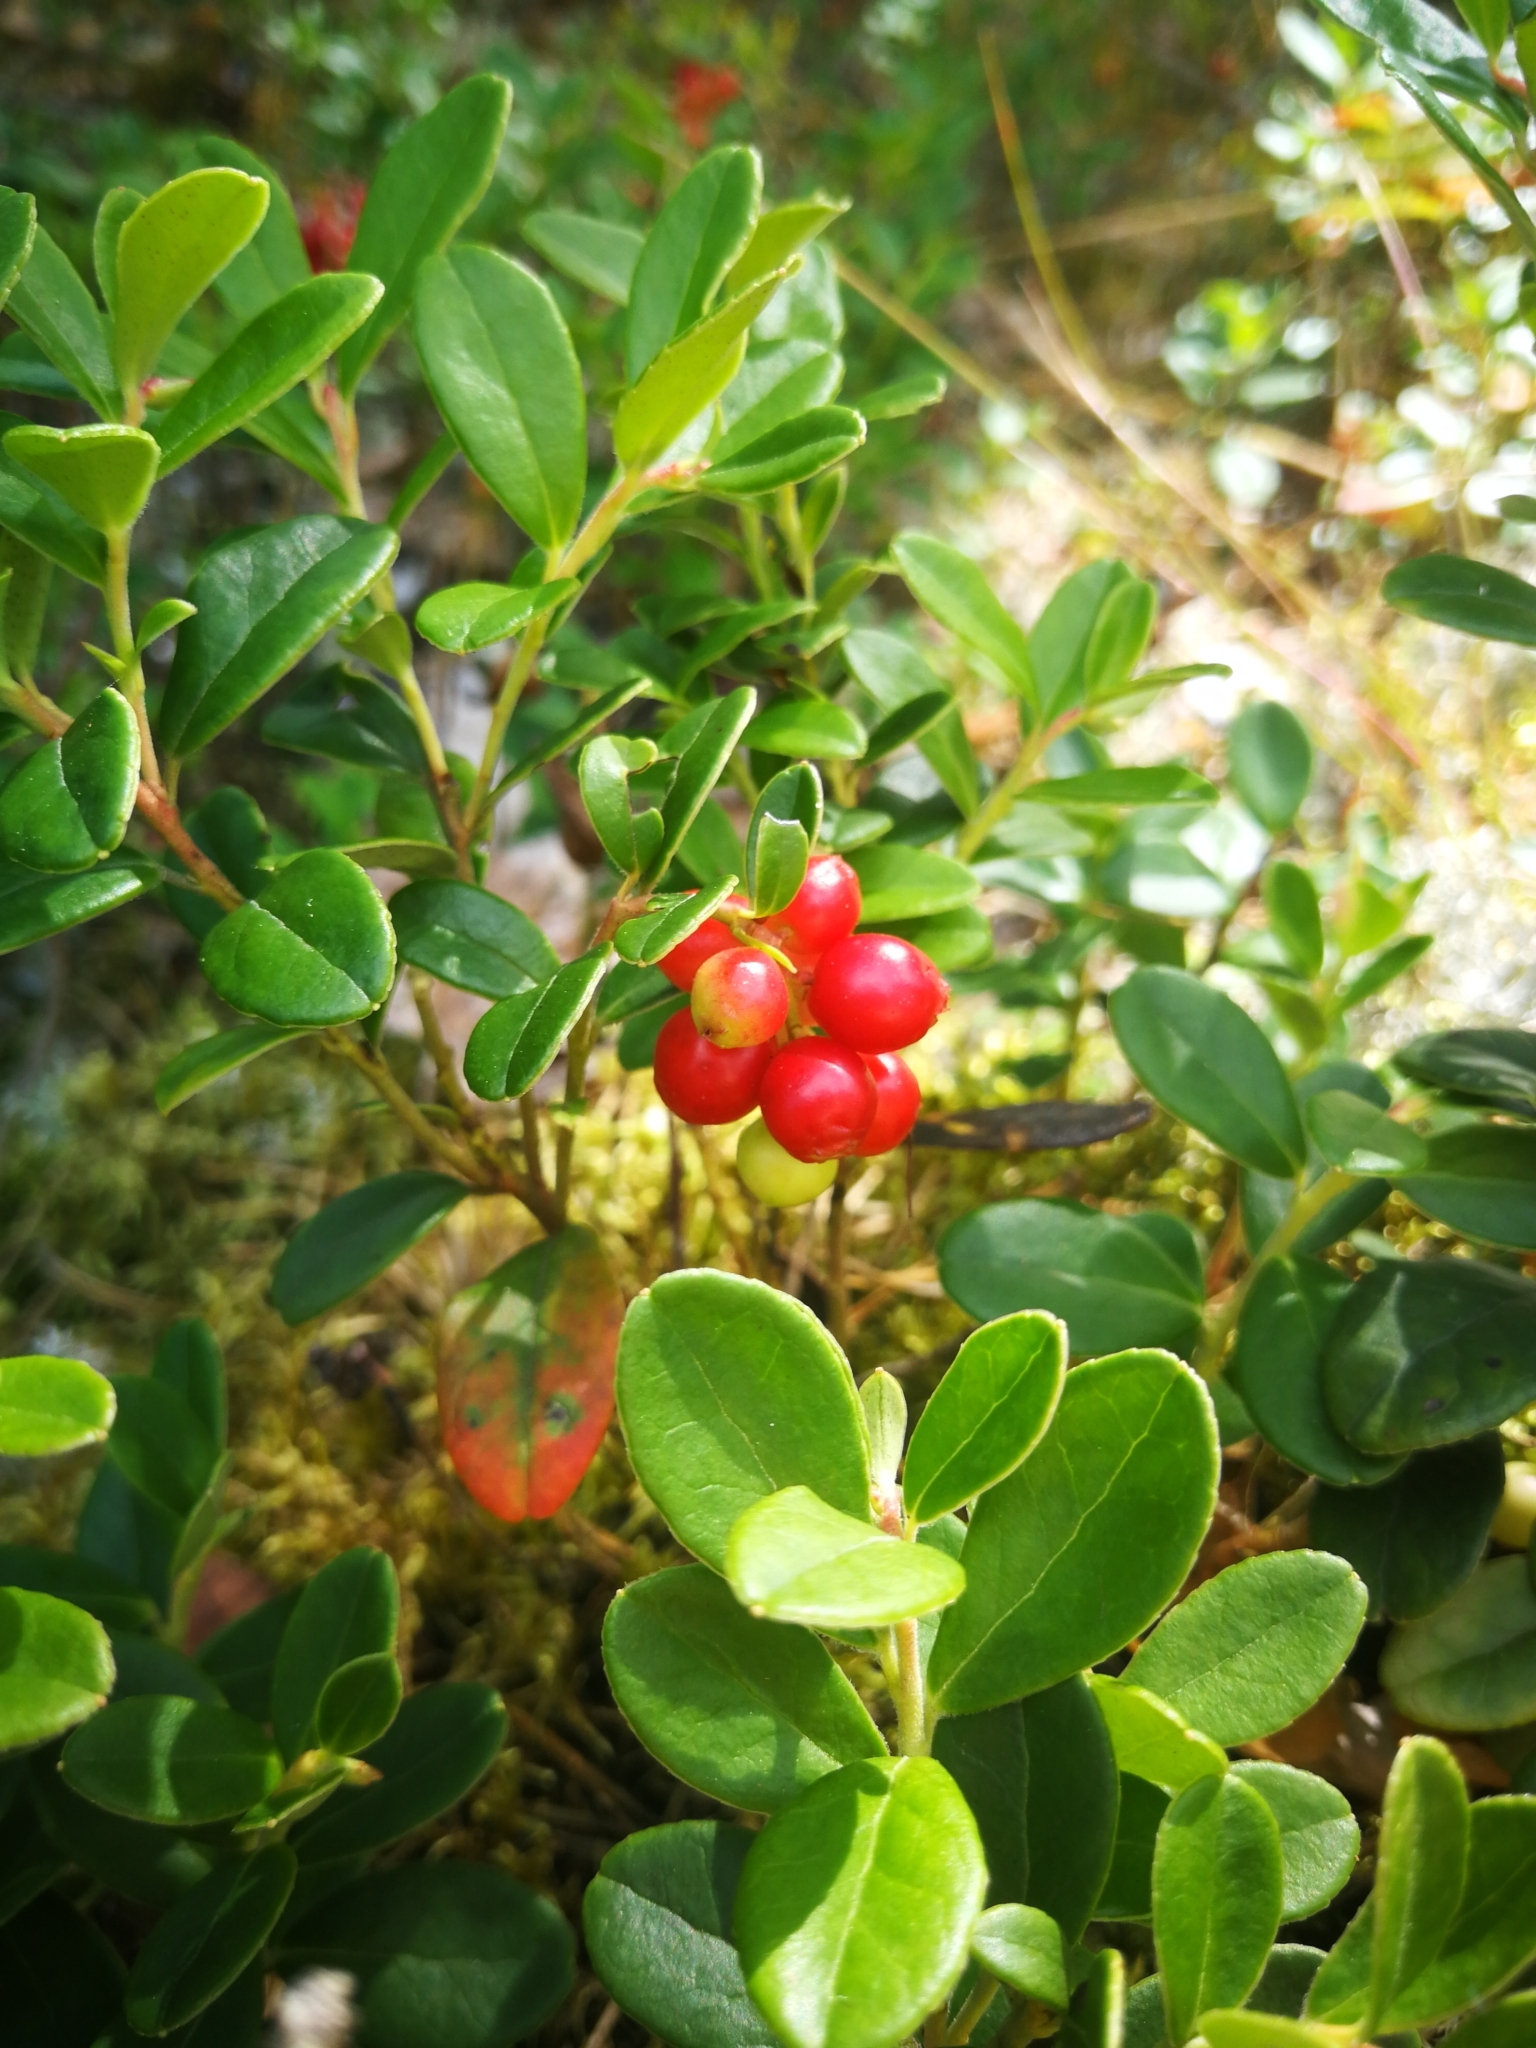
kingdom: Plantae
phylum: Tracheophyta
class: Magnoliopsida
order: Ericales
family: Ericaceae
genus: Vaccinium
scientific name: Vaccinium vitis-idaea
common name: Cowberry
